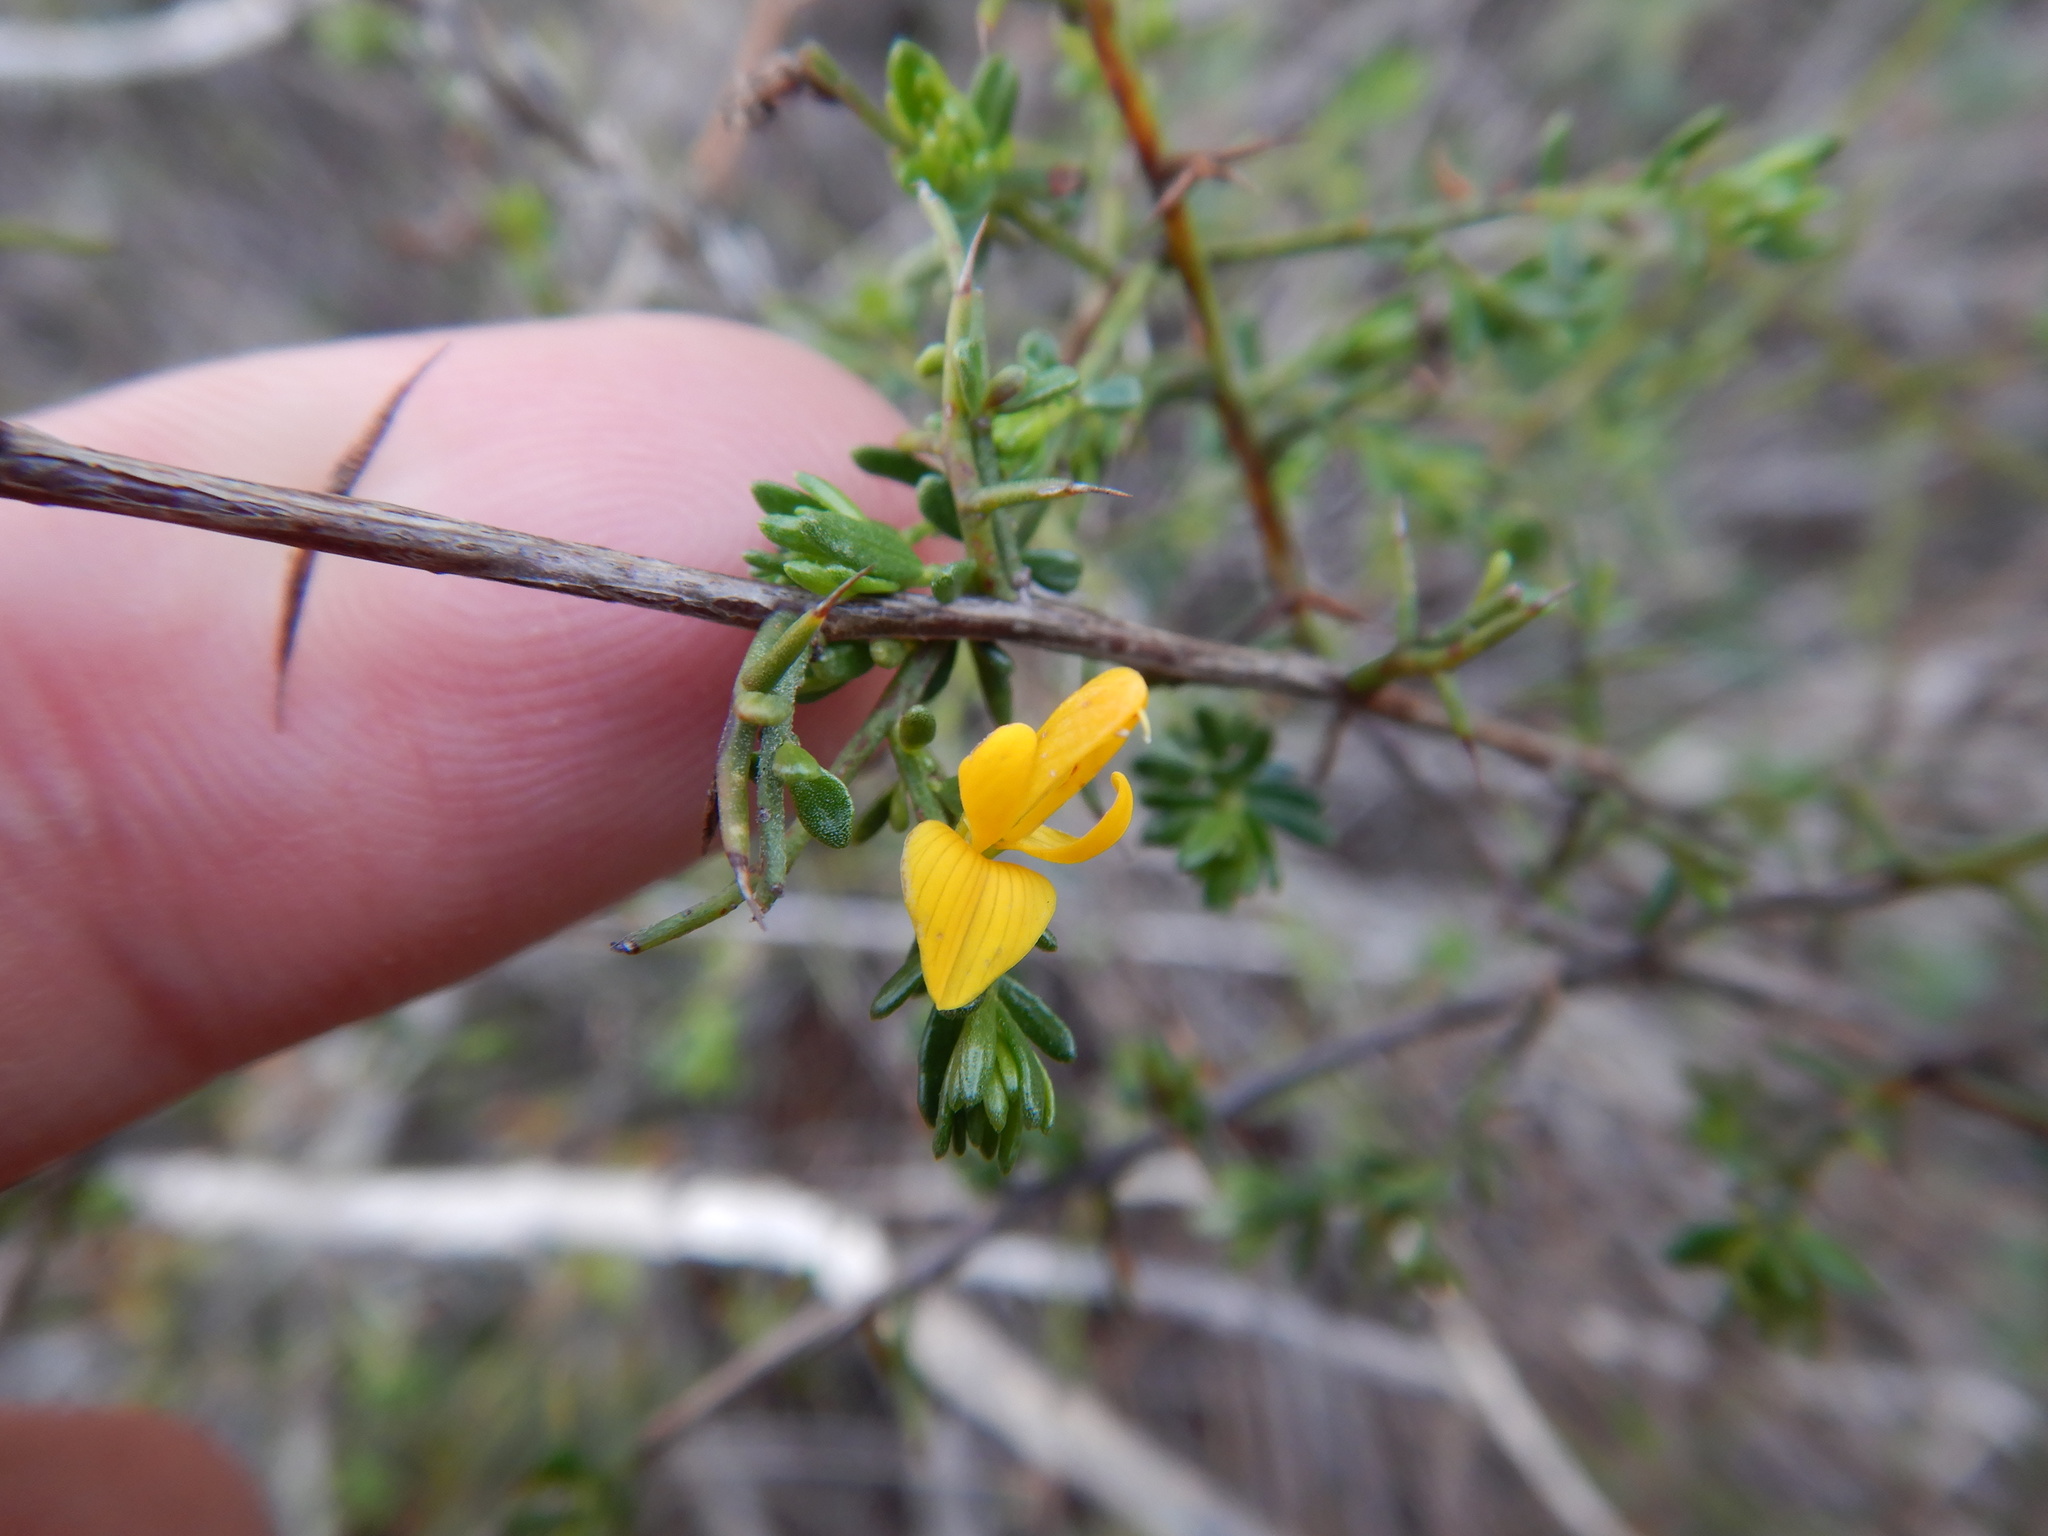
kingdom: Plantae
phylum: Tracheophyta
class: Magnoliopsida
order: Fabales
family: Fabaceae
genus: Genista
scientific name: Genista triacanthos
